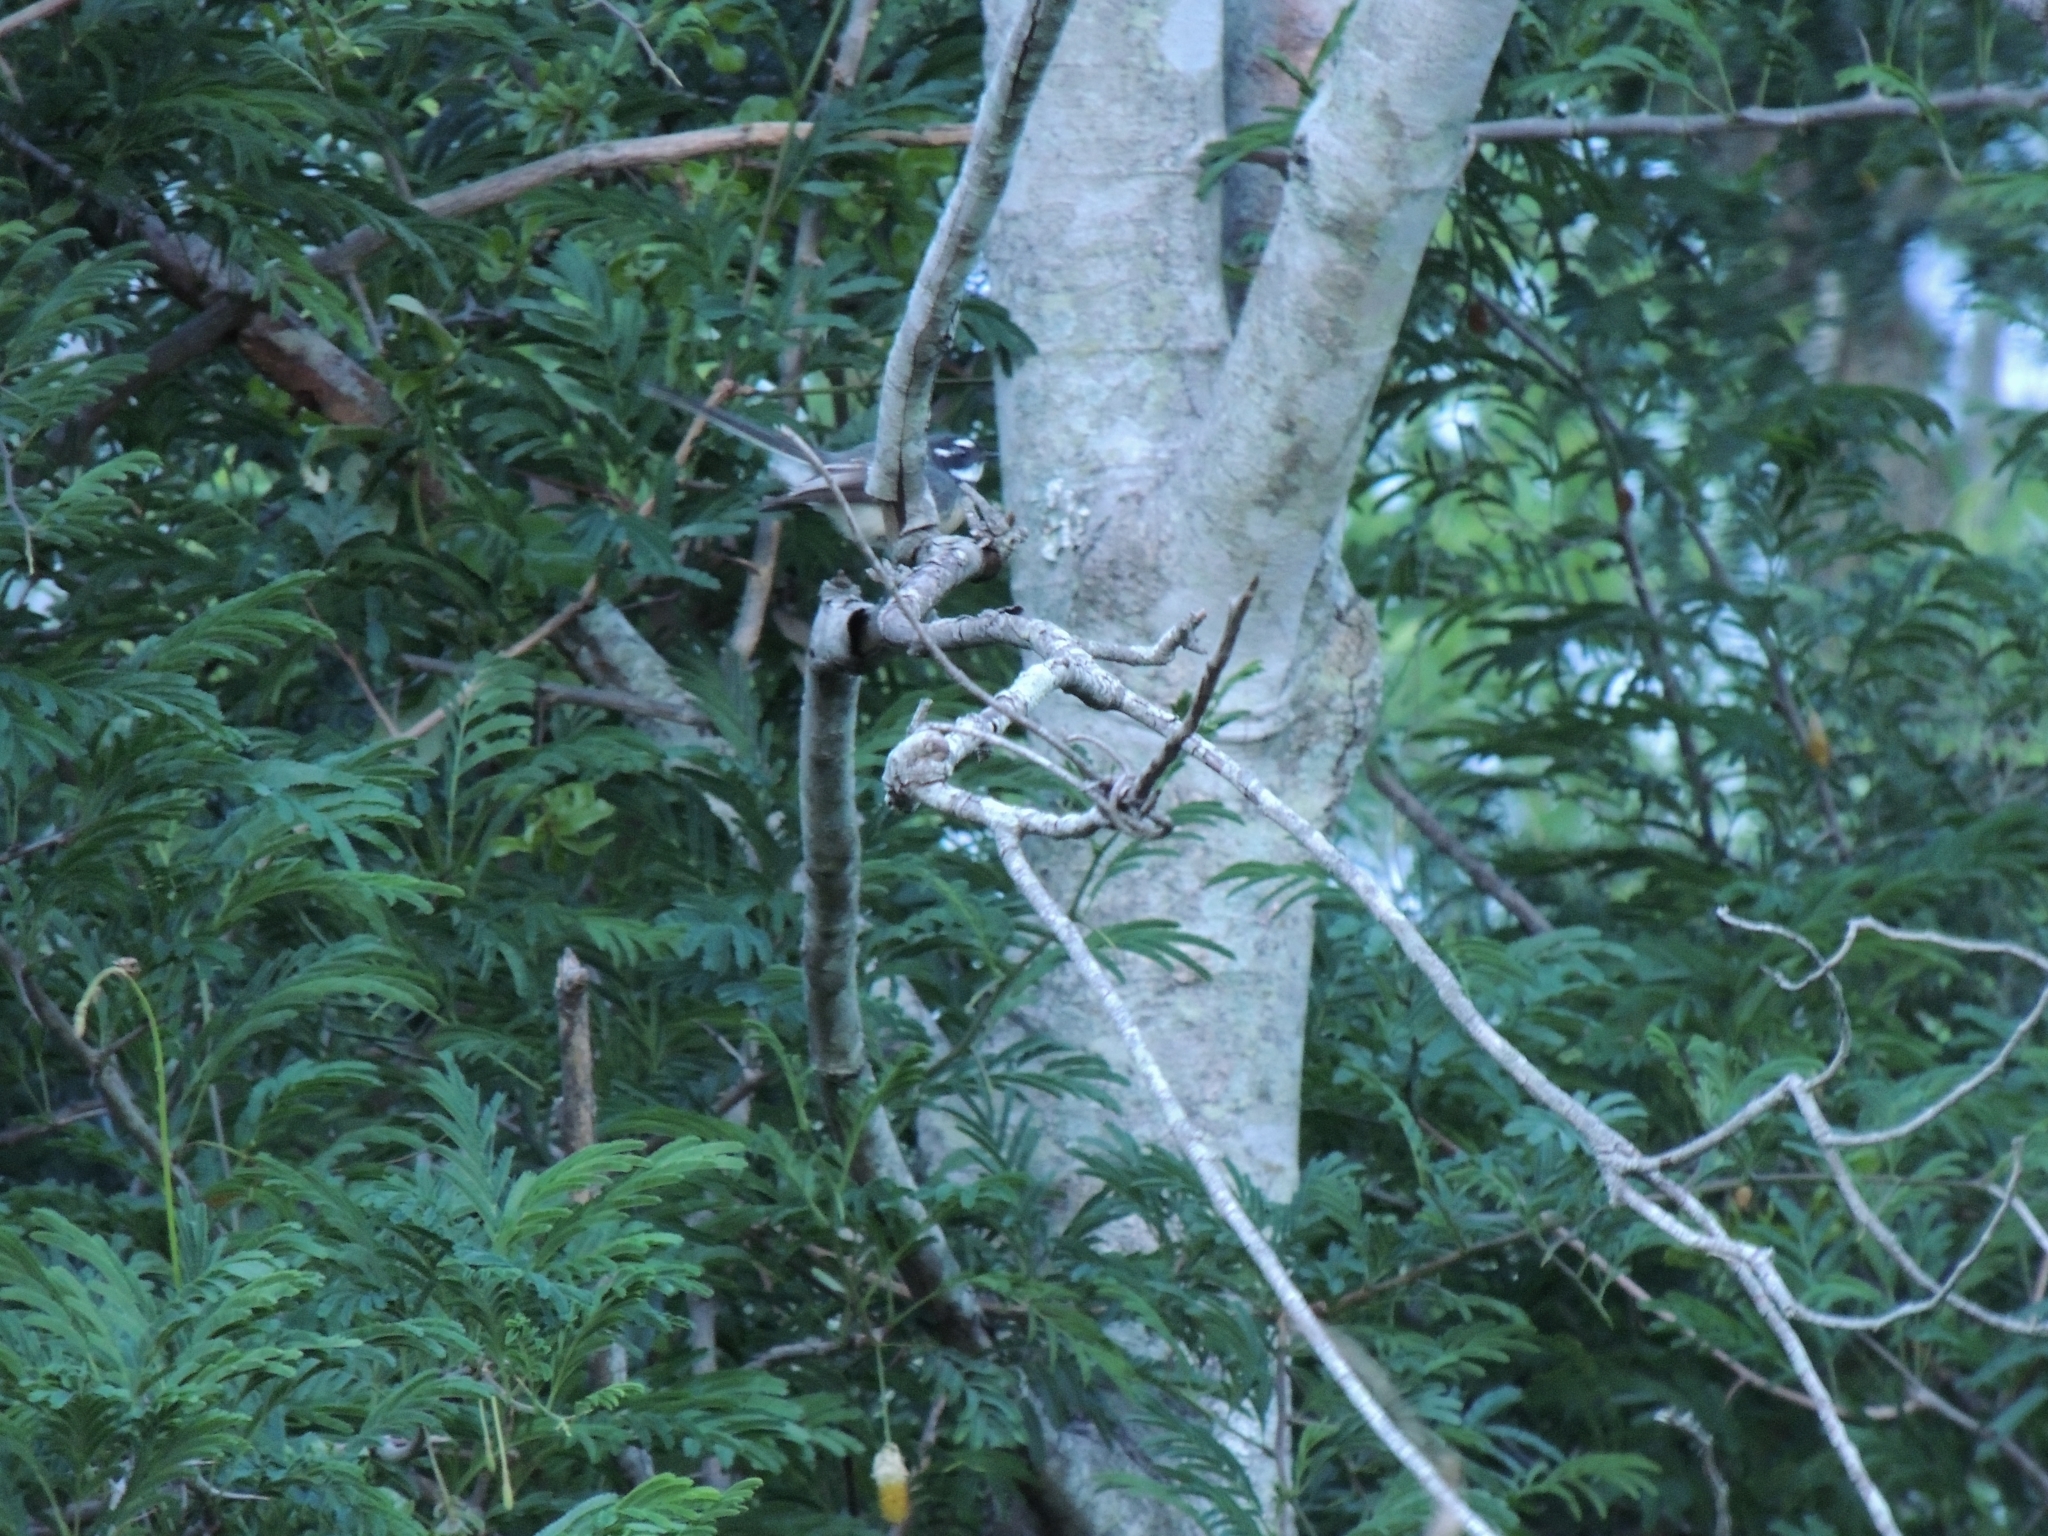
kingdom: Animalia
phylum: Chordata
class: Aves
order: Passeriformes
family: Rhipiduridae
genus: Rhipidura
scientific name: Rhipidura albiscapa
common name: Grey fantail
